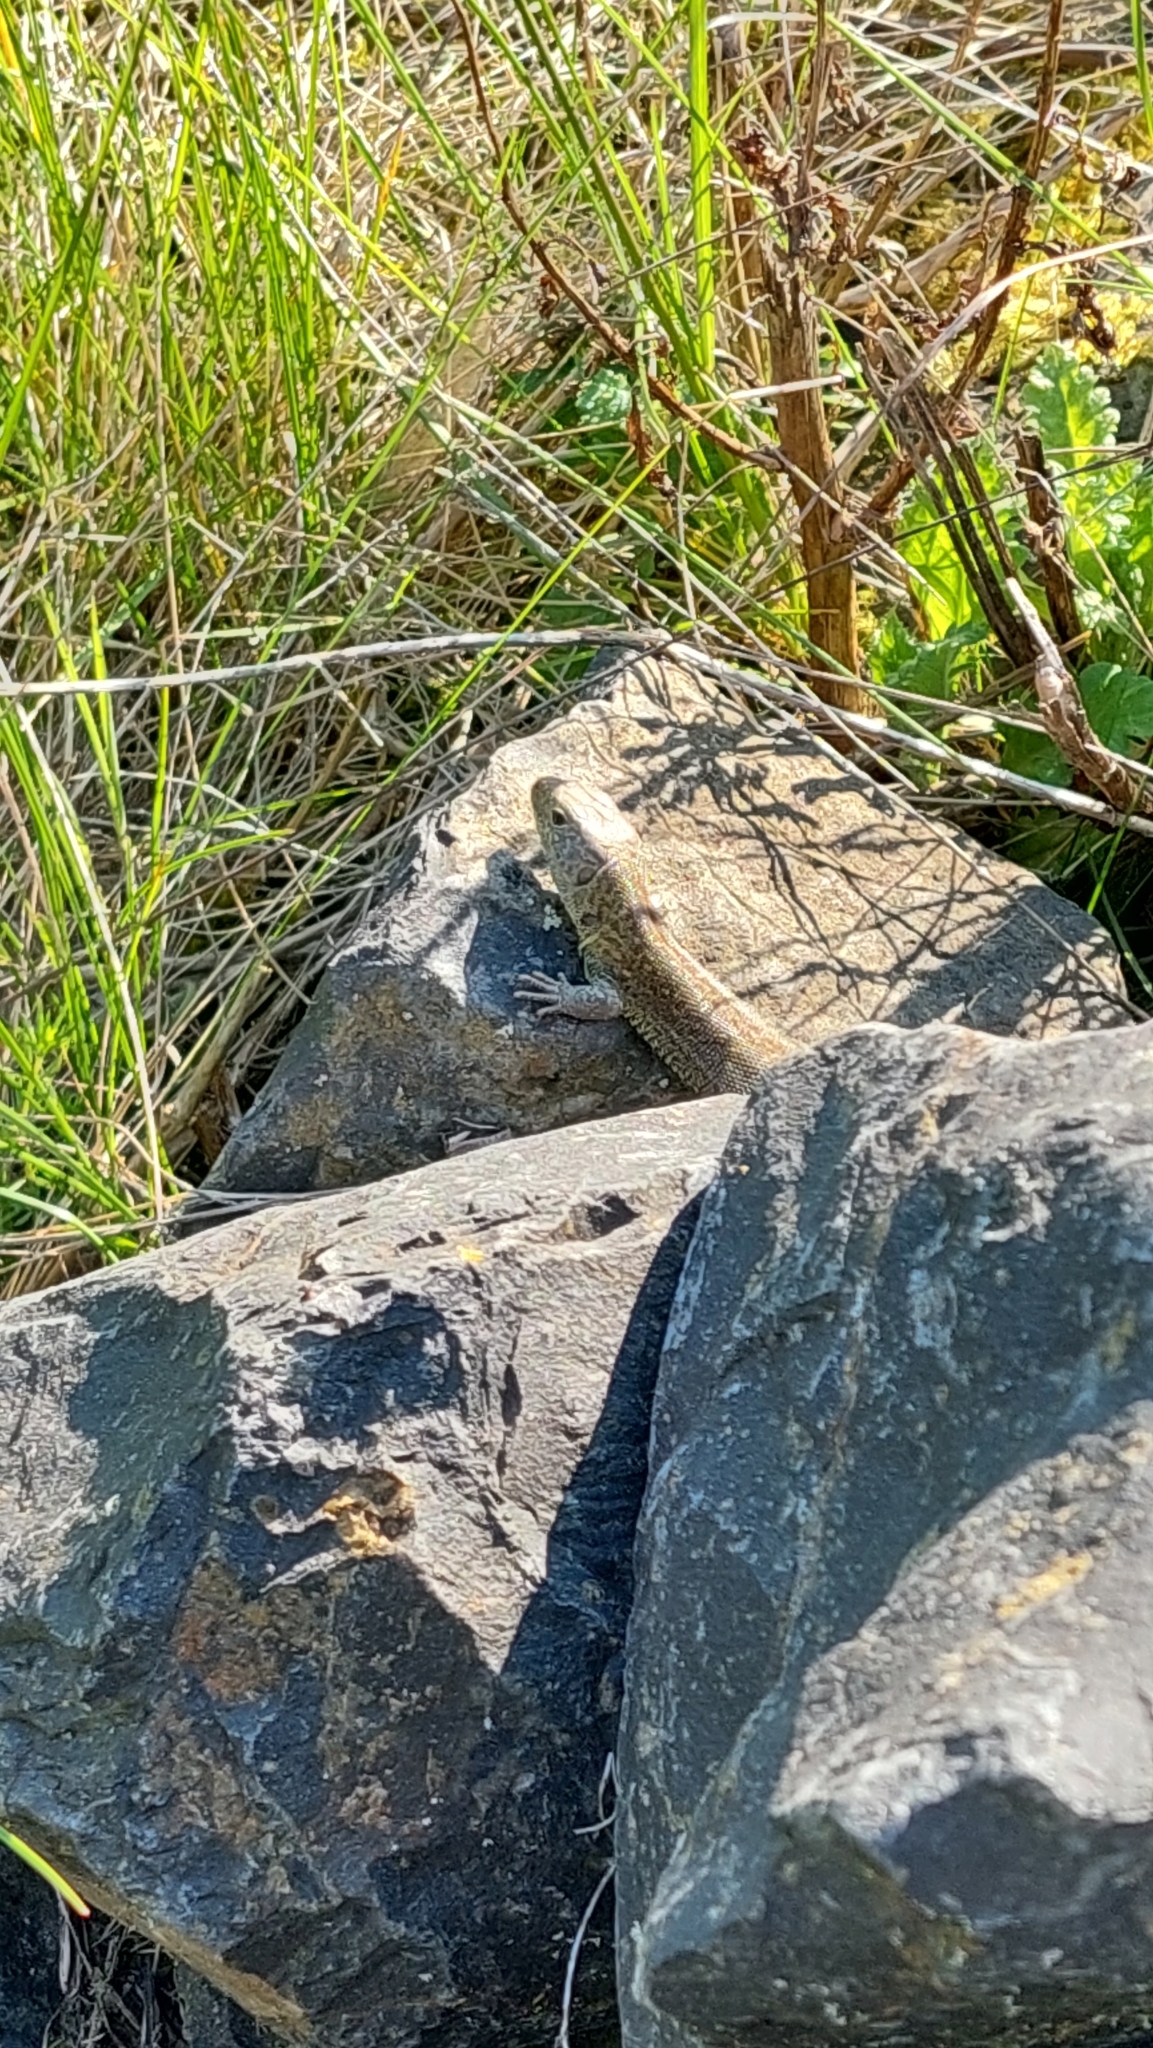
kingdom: Animalia
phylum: Chordata
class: Squamata
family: Lacertidae
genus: Lacerta
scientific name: Lacerta agilis
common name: Sand lizard
